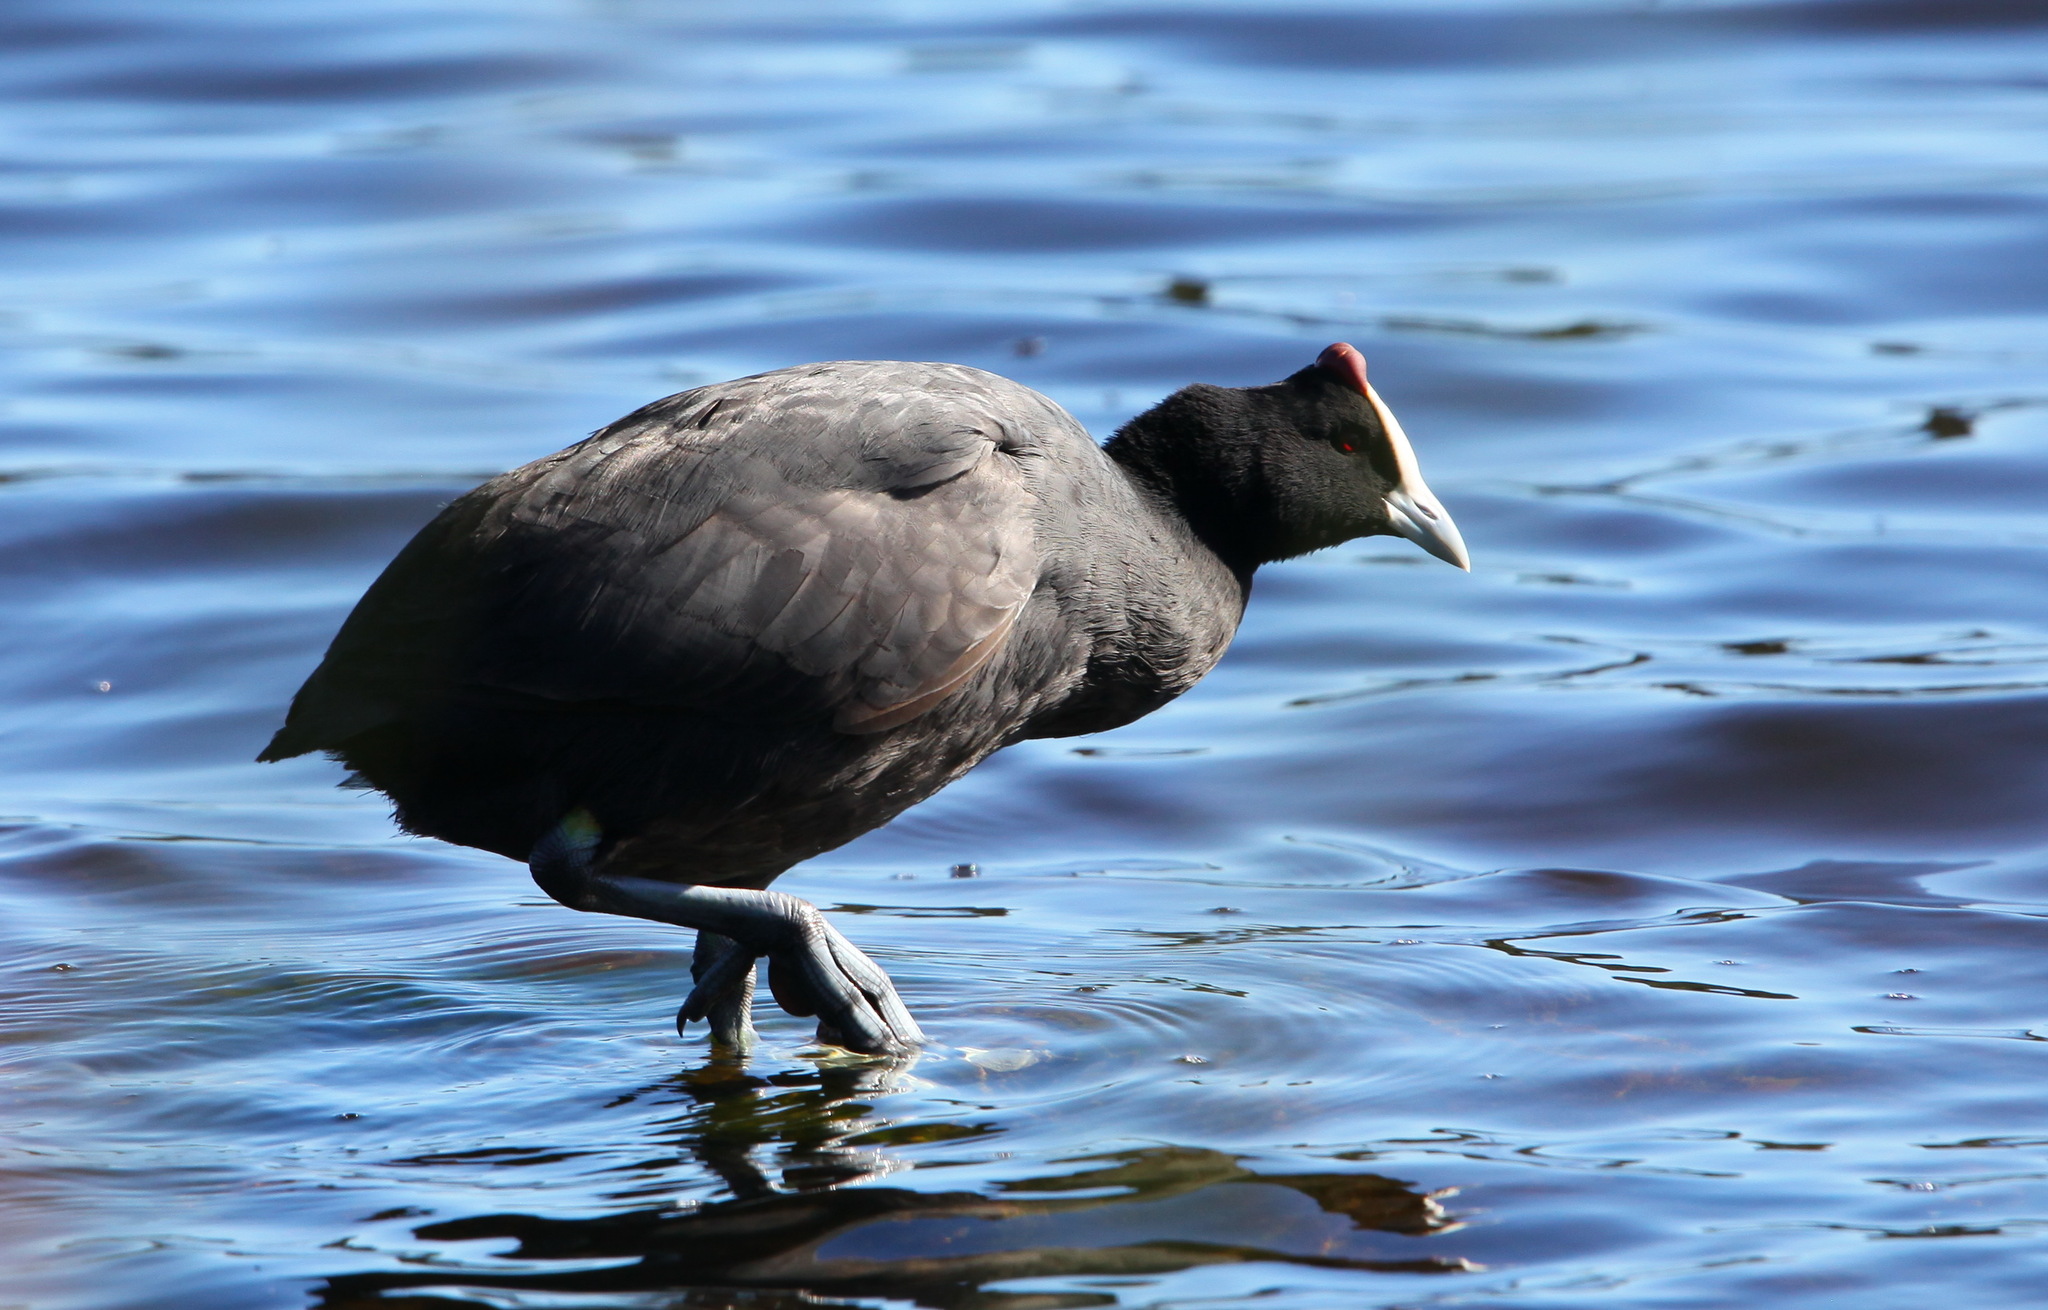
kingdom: Animalia
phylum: Chordata
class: Aves
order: Gruiformes
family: Rallidae
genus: Fulica
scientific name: Fulica cristata
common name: Red-knobbed coot
